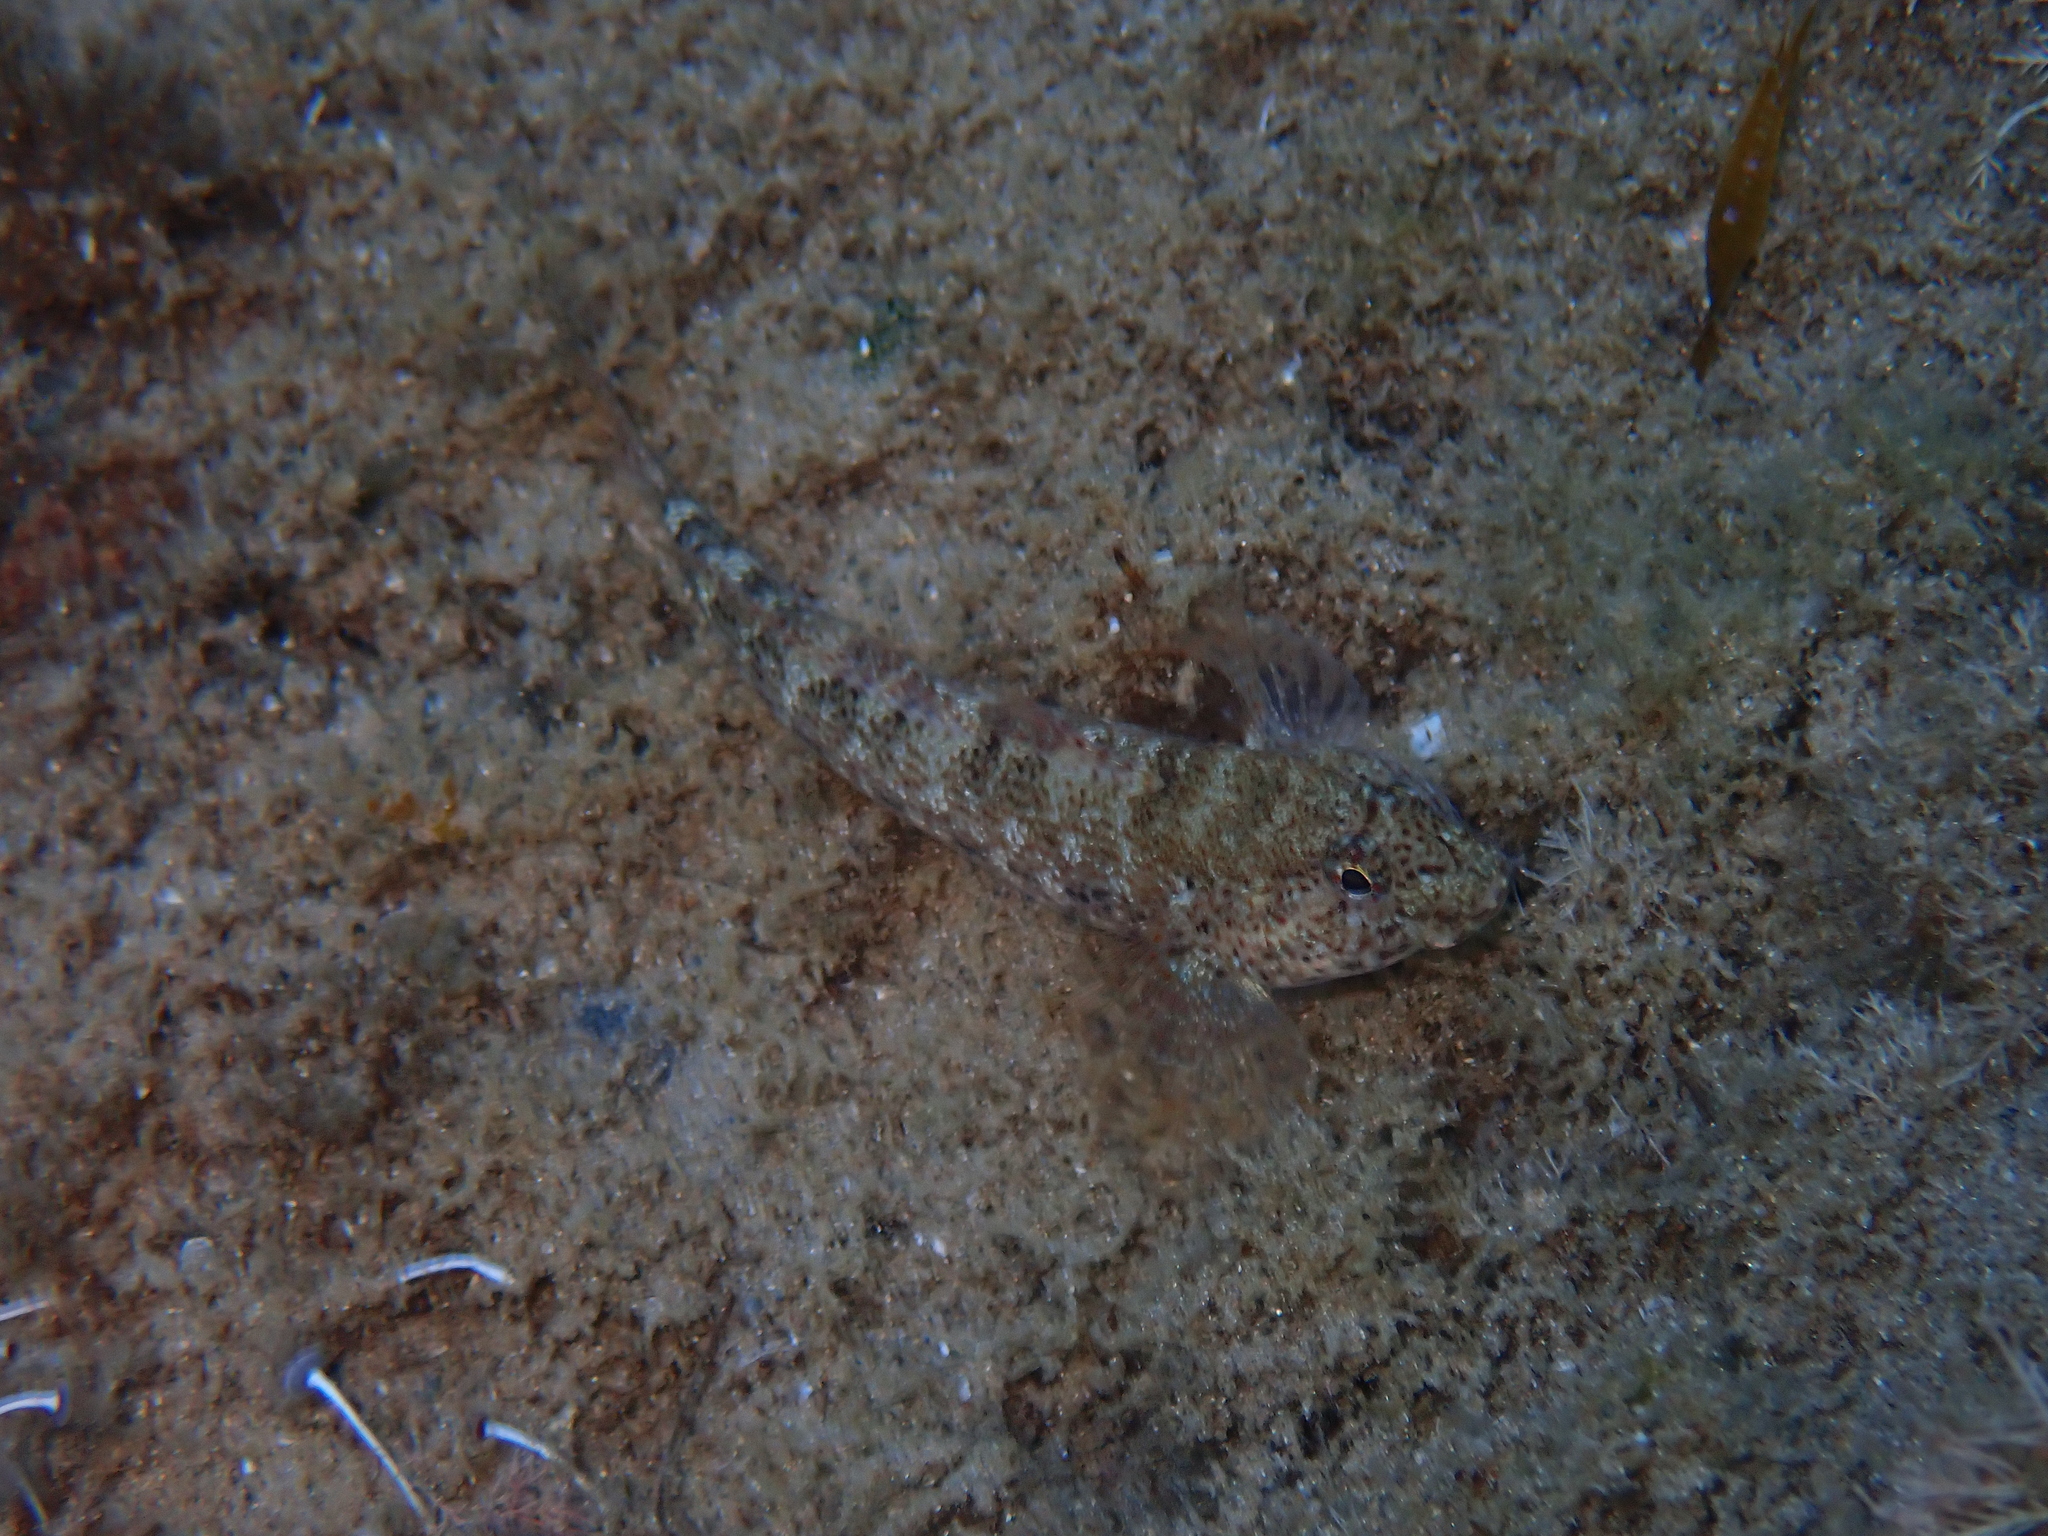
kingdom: Animalia
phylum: Chordata
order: Perciformes
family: Gobiidae
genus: Gobius
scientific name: Gobius incognitus
